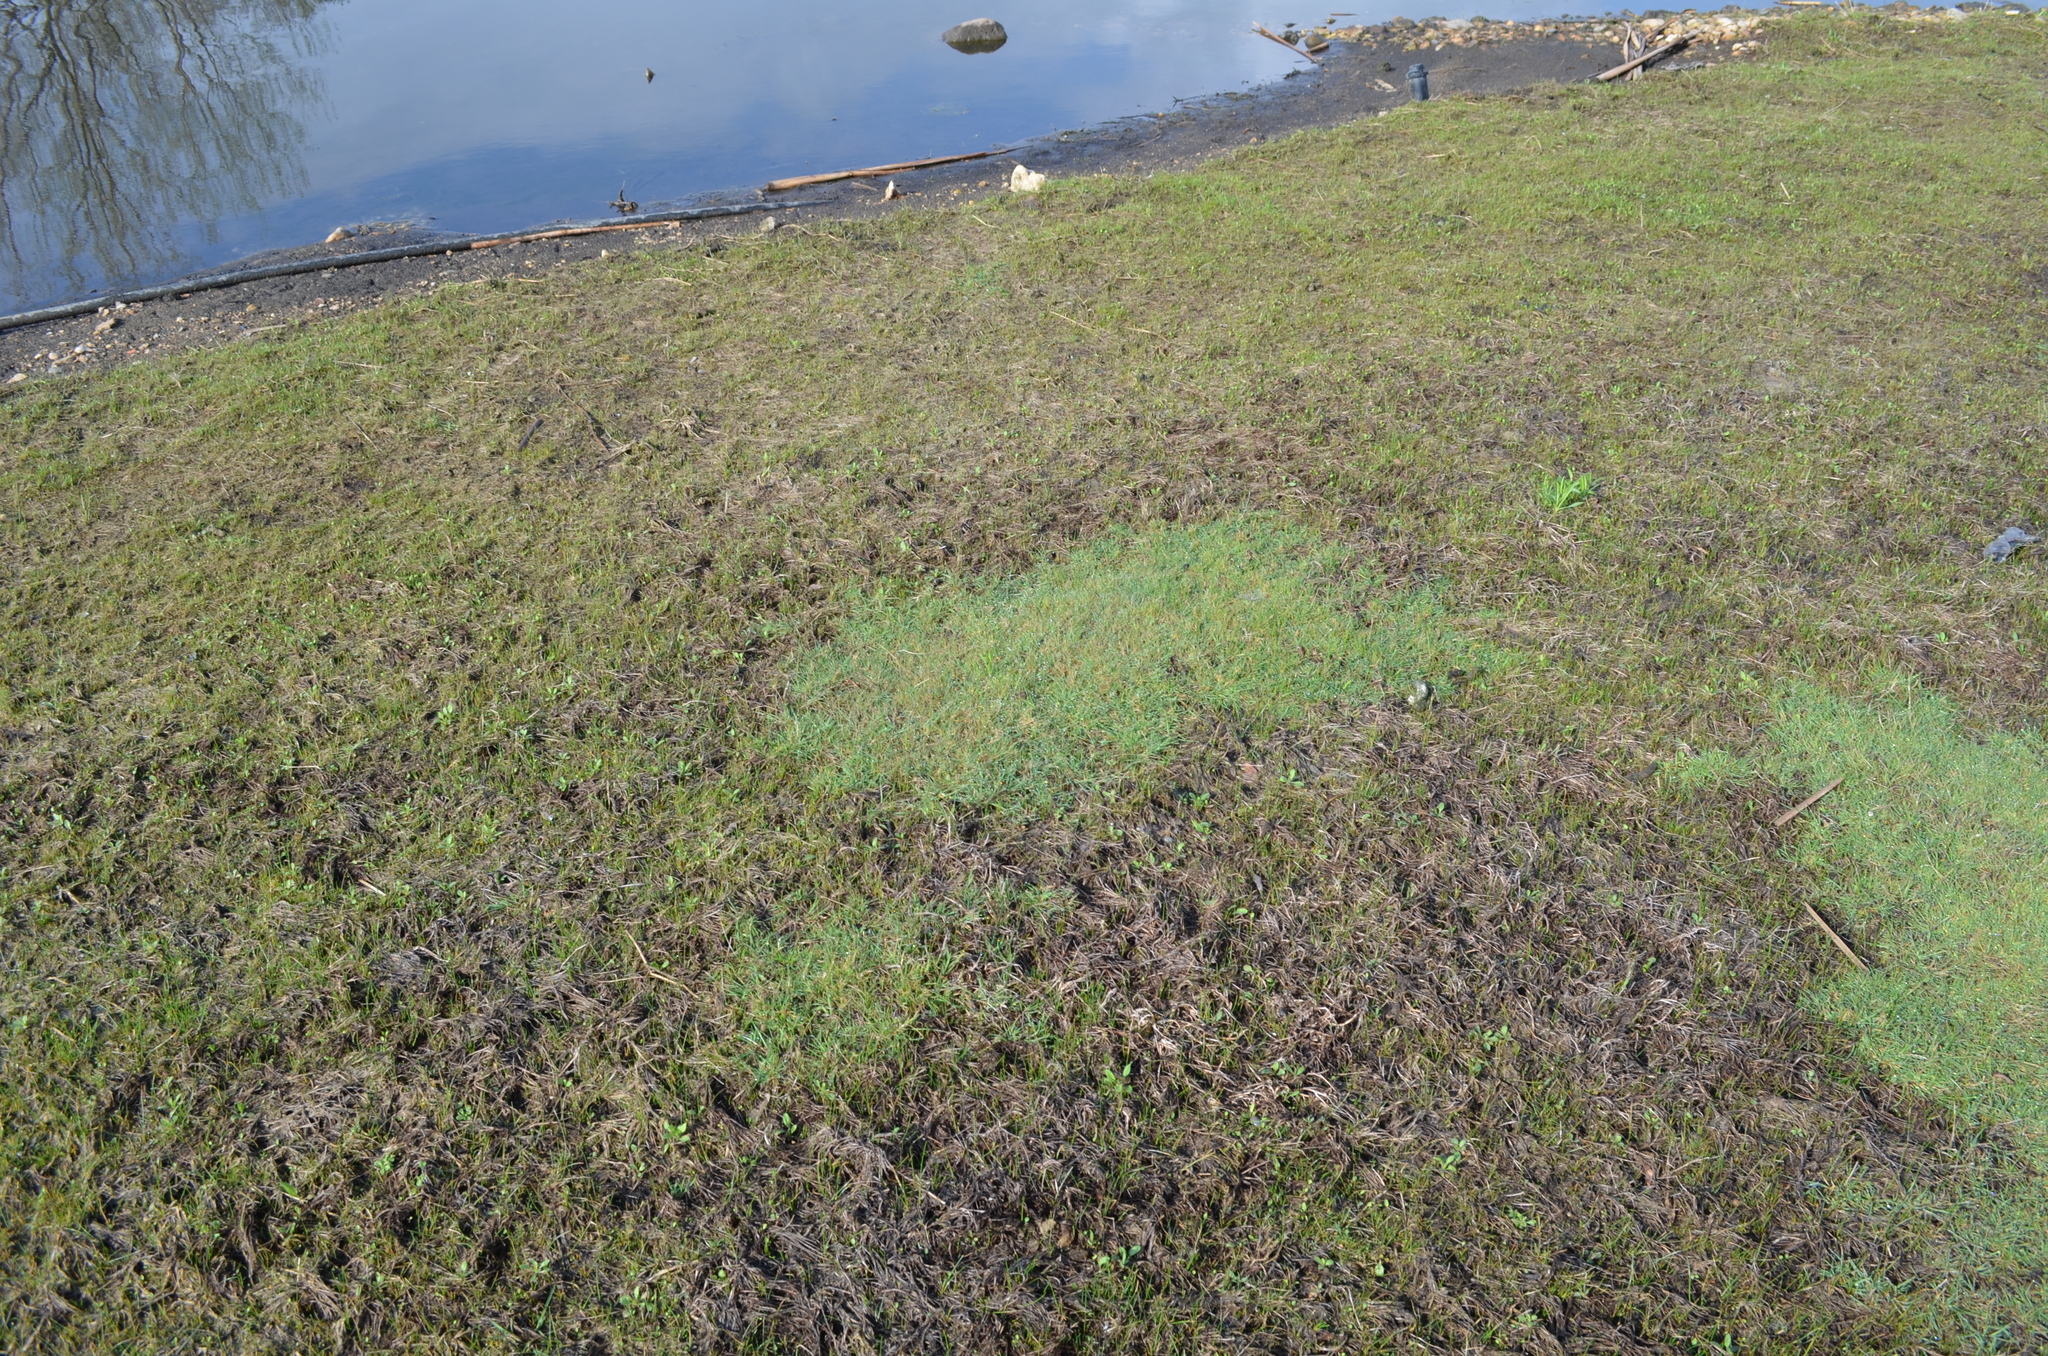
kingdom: Plantae
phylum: Tracheophyta
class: Liliopsida
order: Poales
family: Poaceae
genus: Agrostis
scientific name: Agrostis stolonifera
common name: Creeping bentgrass
